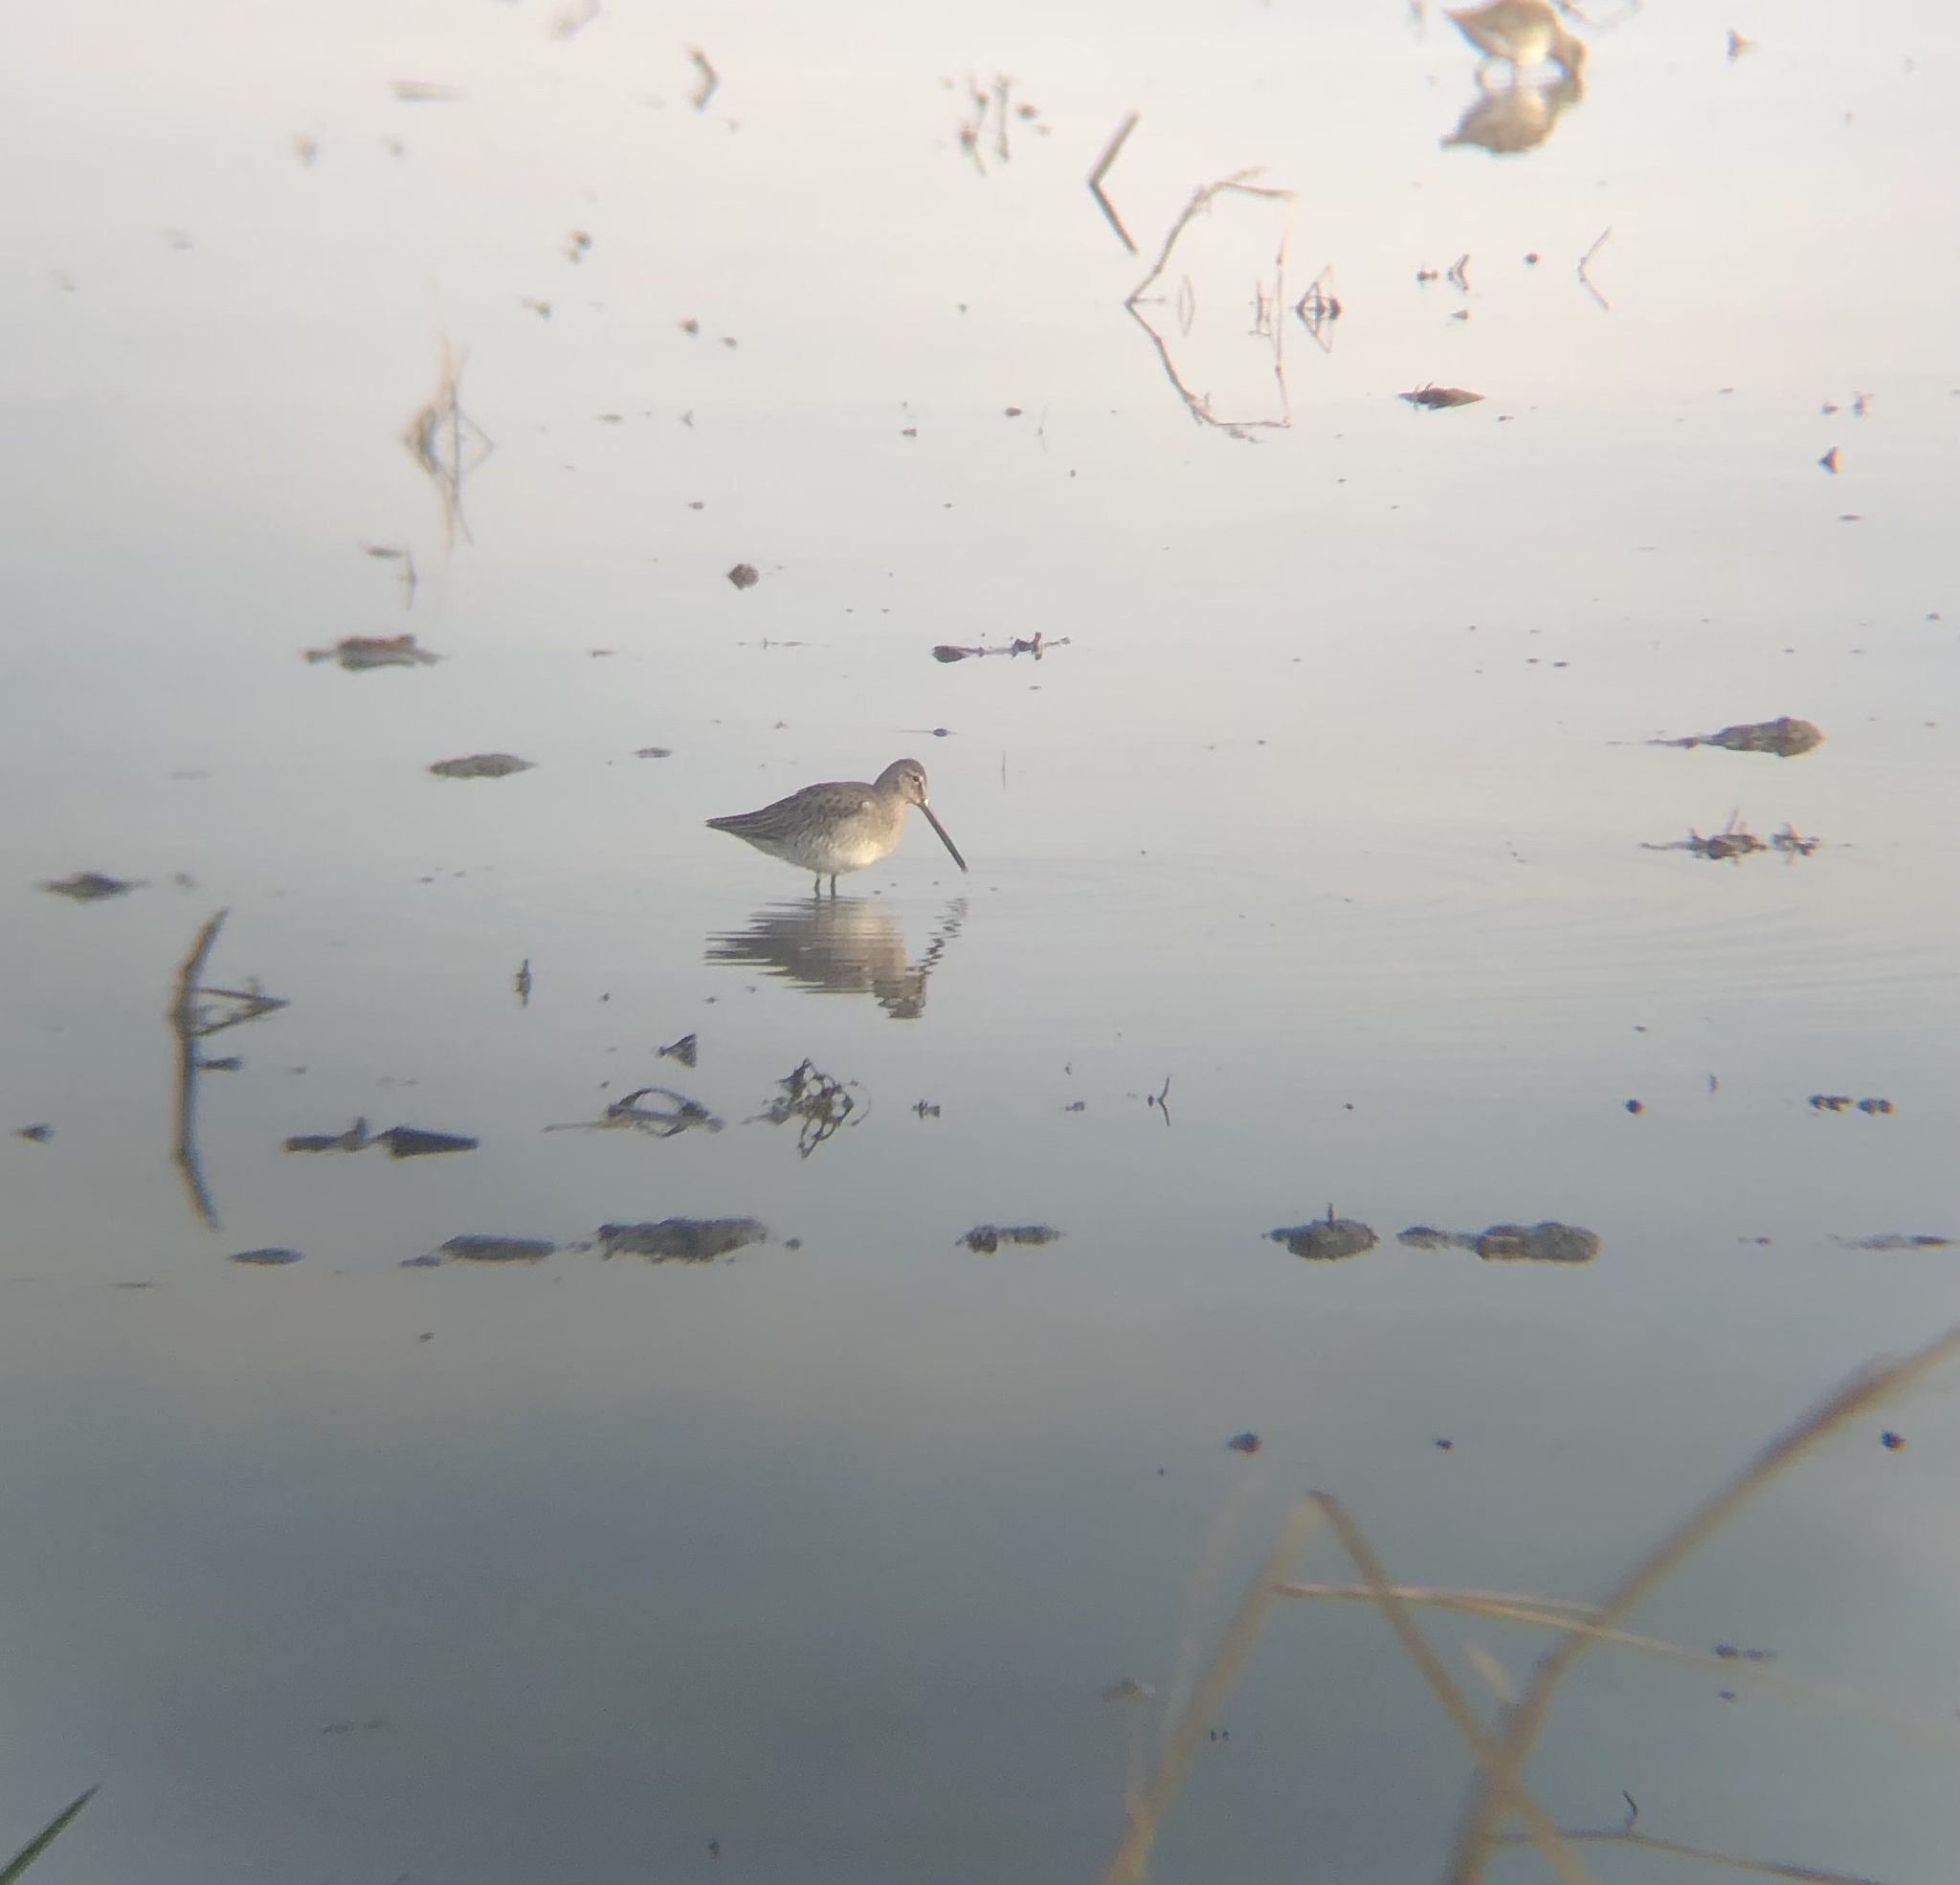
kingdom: Animalia
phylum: Chordata
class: Aves
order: Charadriiformes
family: Scolopacidae
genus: Limnodromus
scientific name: Limnodromus scolopaceus
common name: Long-billed dowitcher
